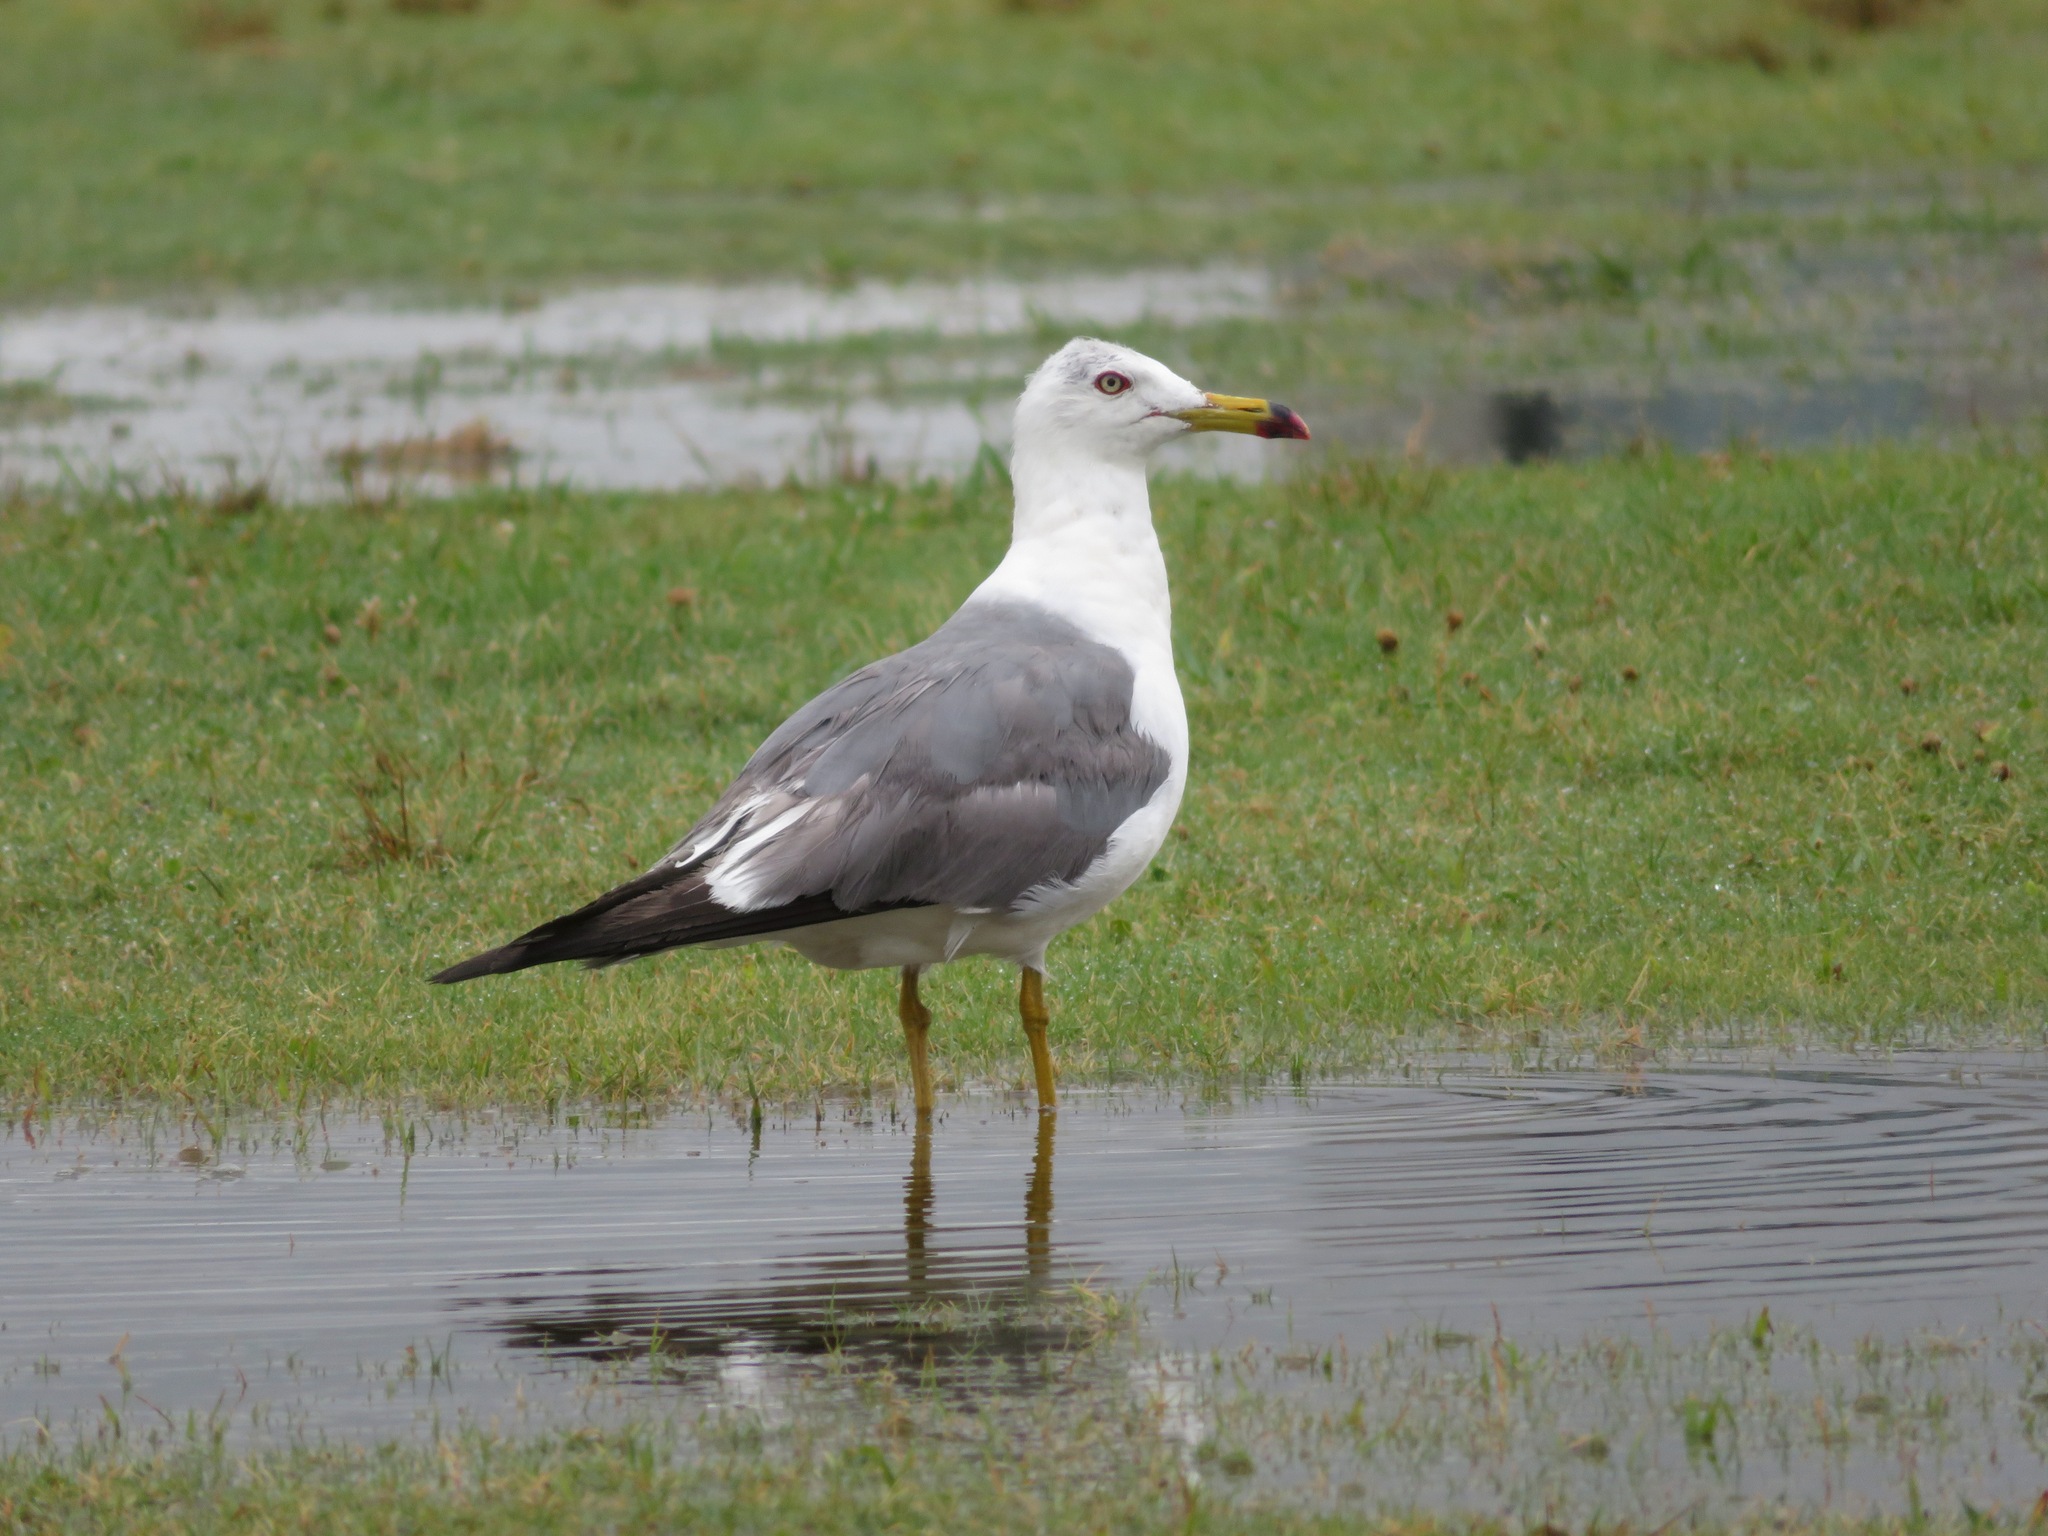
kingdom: Animalia
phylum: Chordata
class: Aves
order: Charadriiformes
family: Laridae
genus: Larus
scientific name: Larus crassirostris
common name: Black-tailed gull
